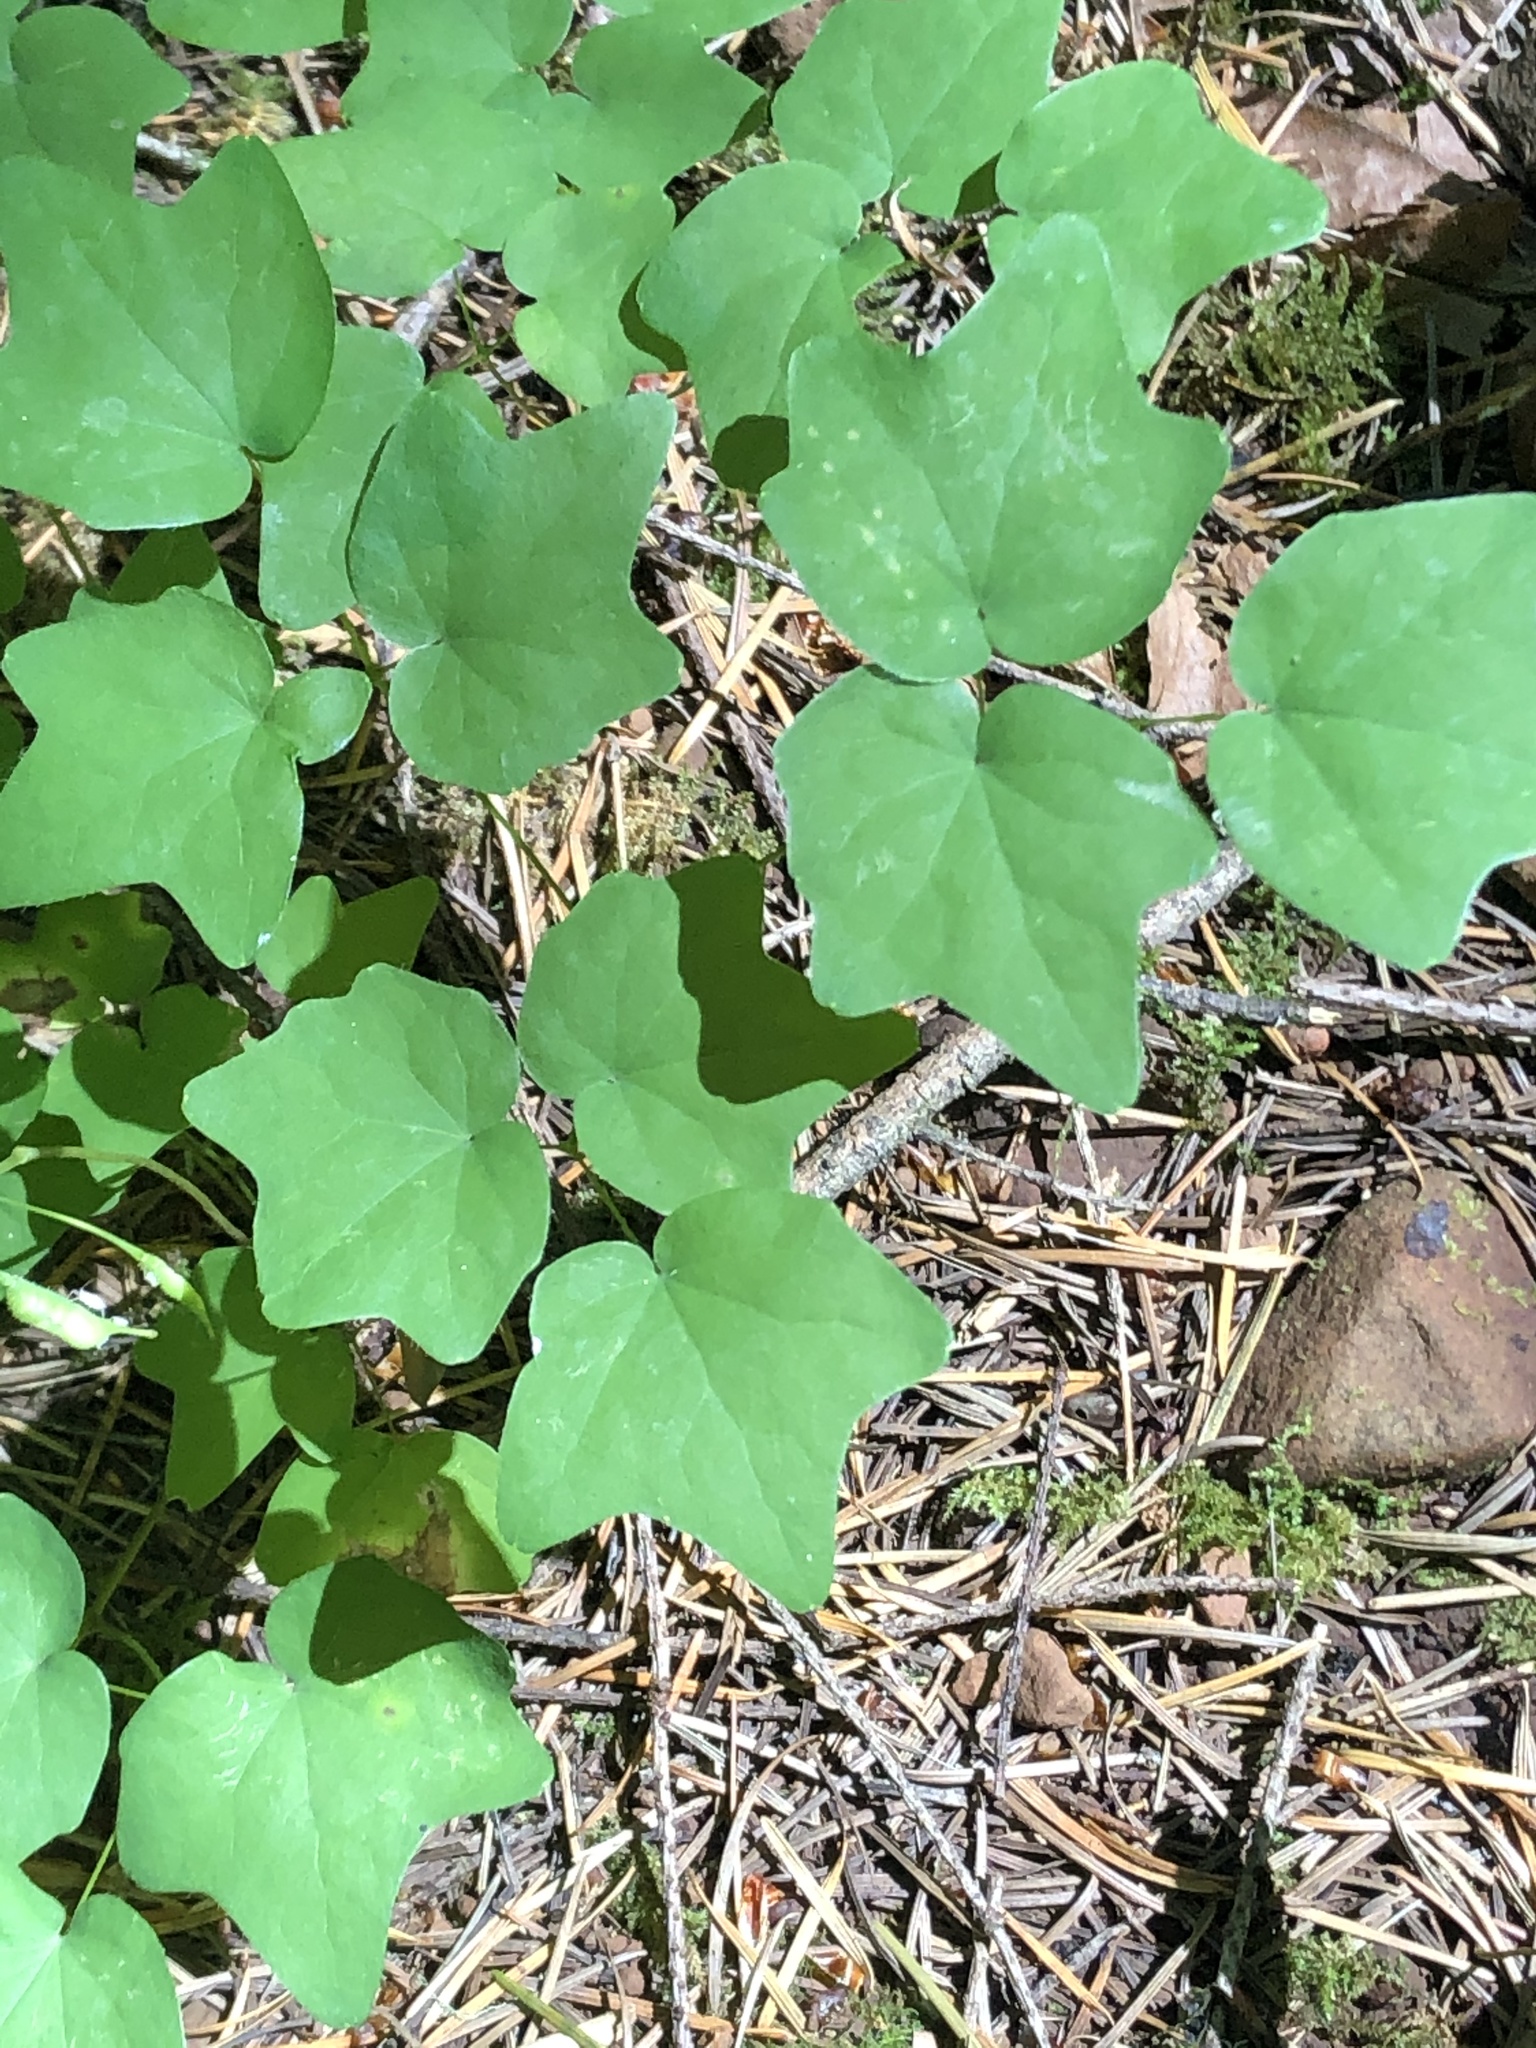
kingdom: Plantae
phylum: Tracheophyta
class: Magnoliopsida
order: Ranunculales
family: Berberidaceae
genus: Vancouveria
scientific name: Vancouveria hexandra
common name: Northern inside-out-flower
